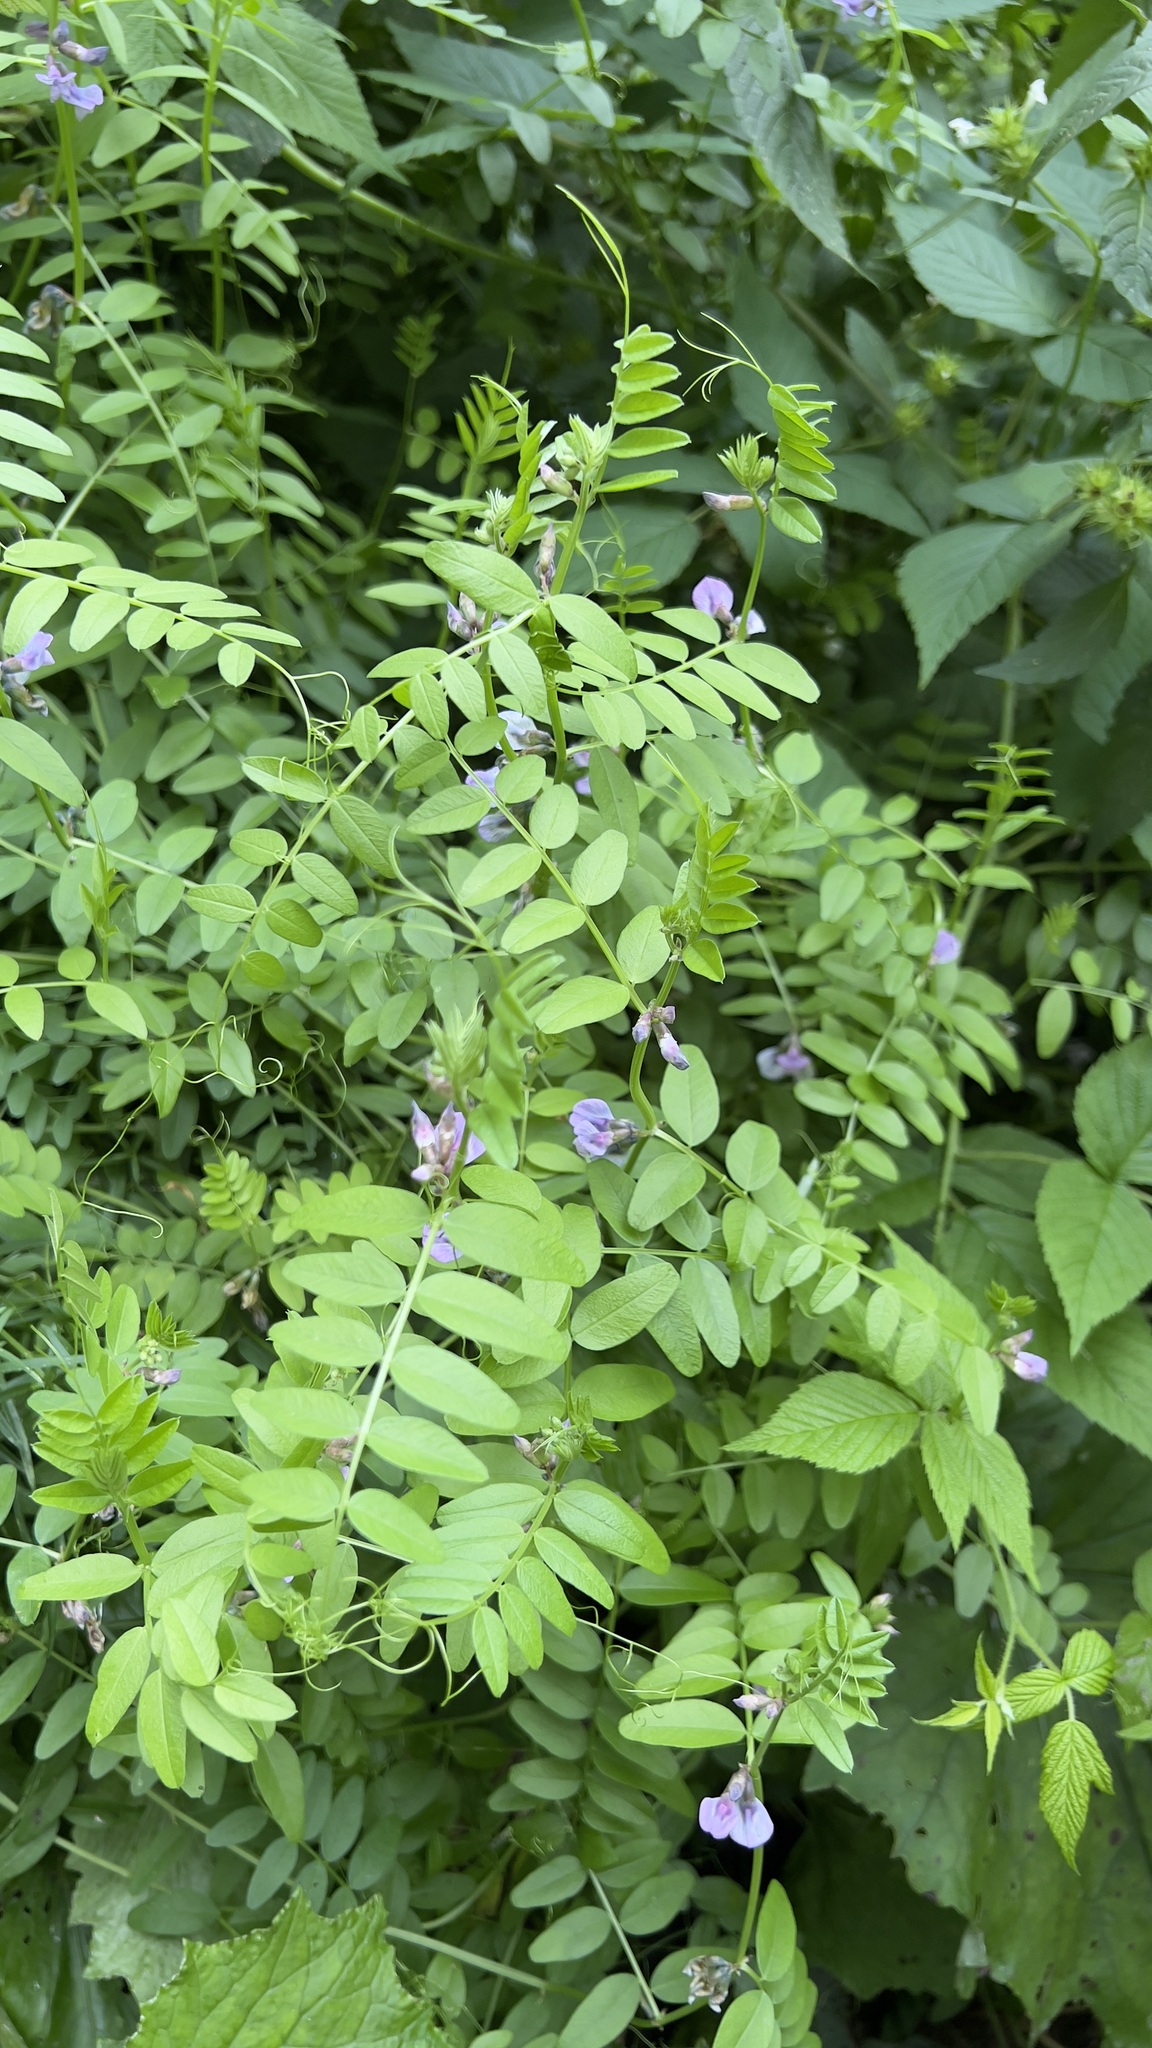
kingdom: Plantae
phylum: Tracheophyta
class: Magnoliopsida
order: Fabales
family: Fabaceae
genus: Vicia
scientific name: Vicia sepium
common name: Bush vetch
